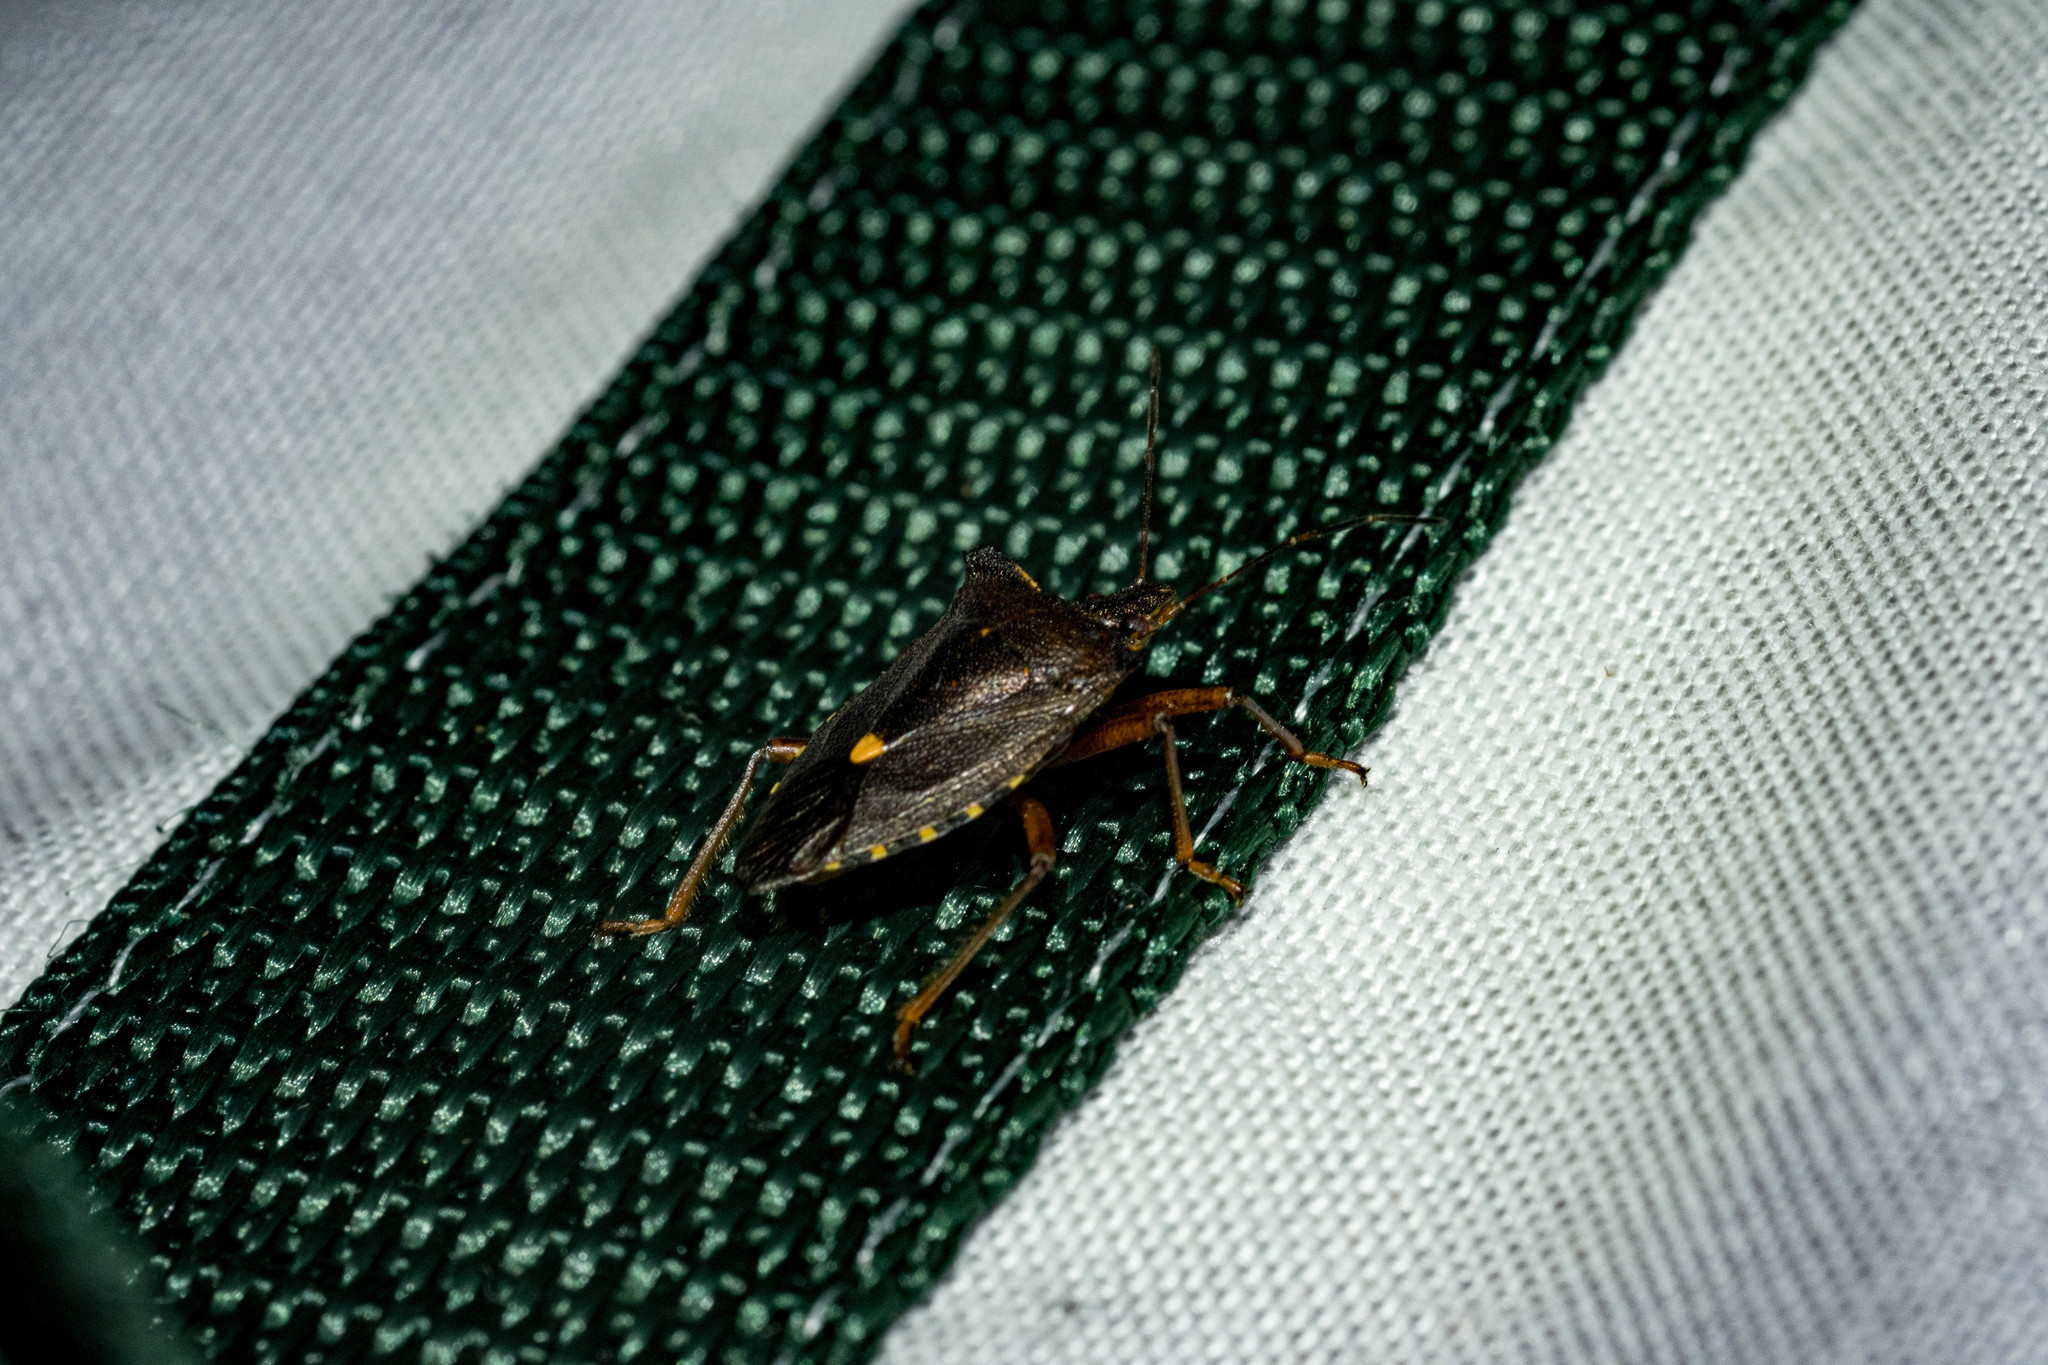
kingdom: Animalia
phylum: Arthropoda
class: Insecta
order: Hemiptera
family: Pentatomidae
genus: Pentatoma
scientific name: Pentatoma rufipes
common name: Forest bug
